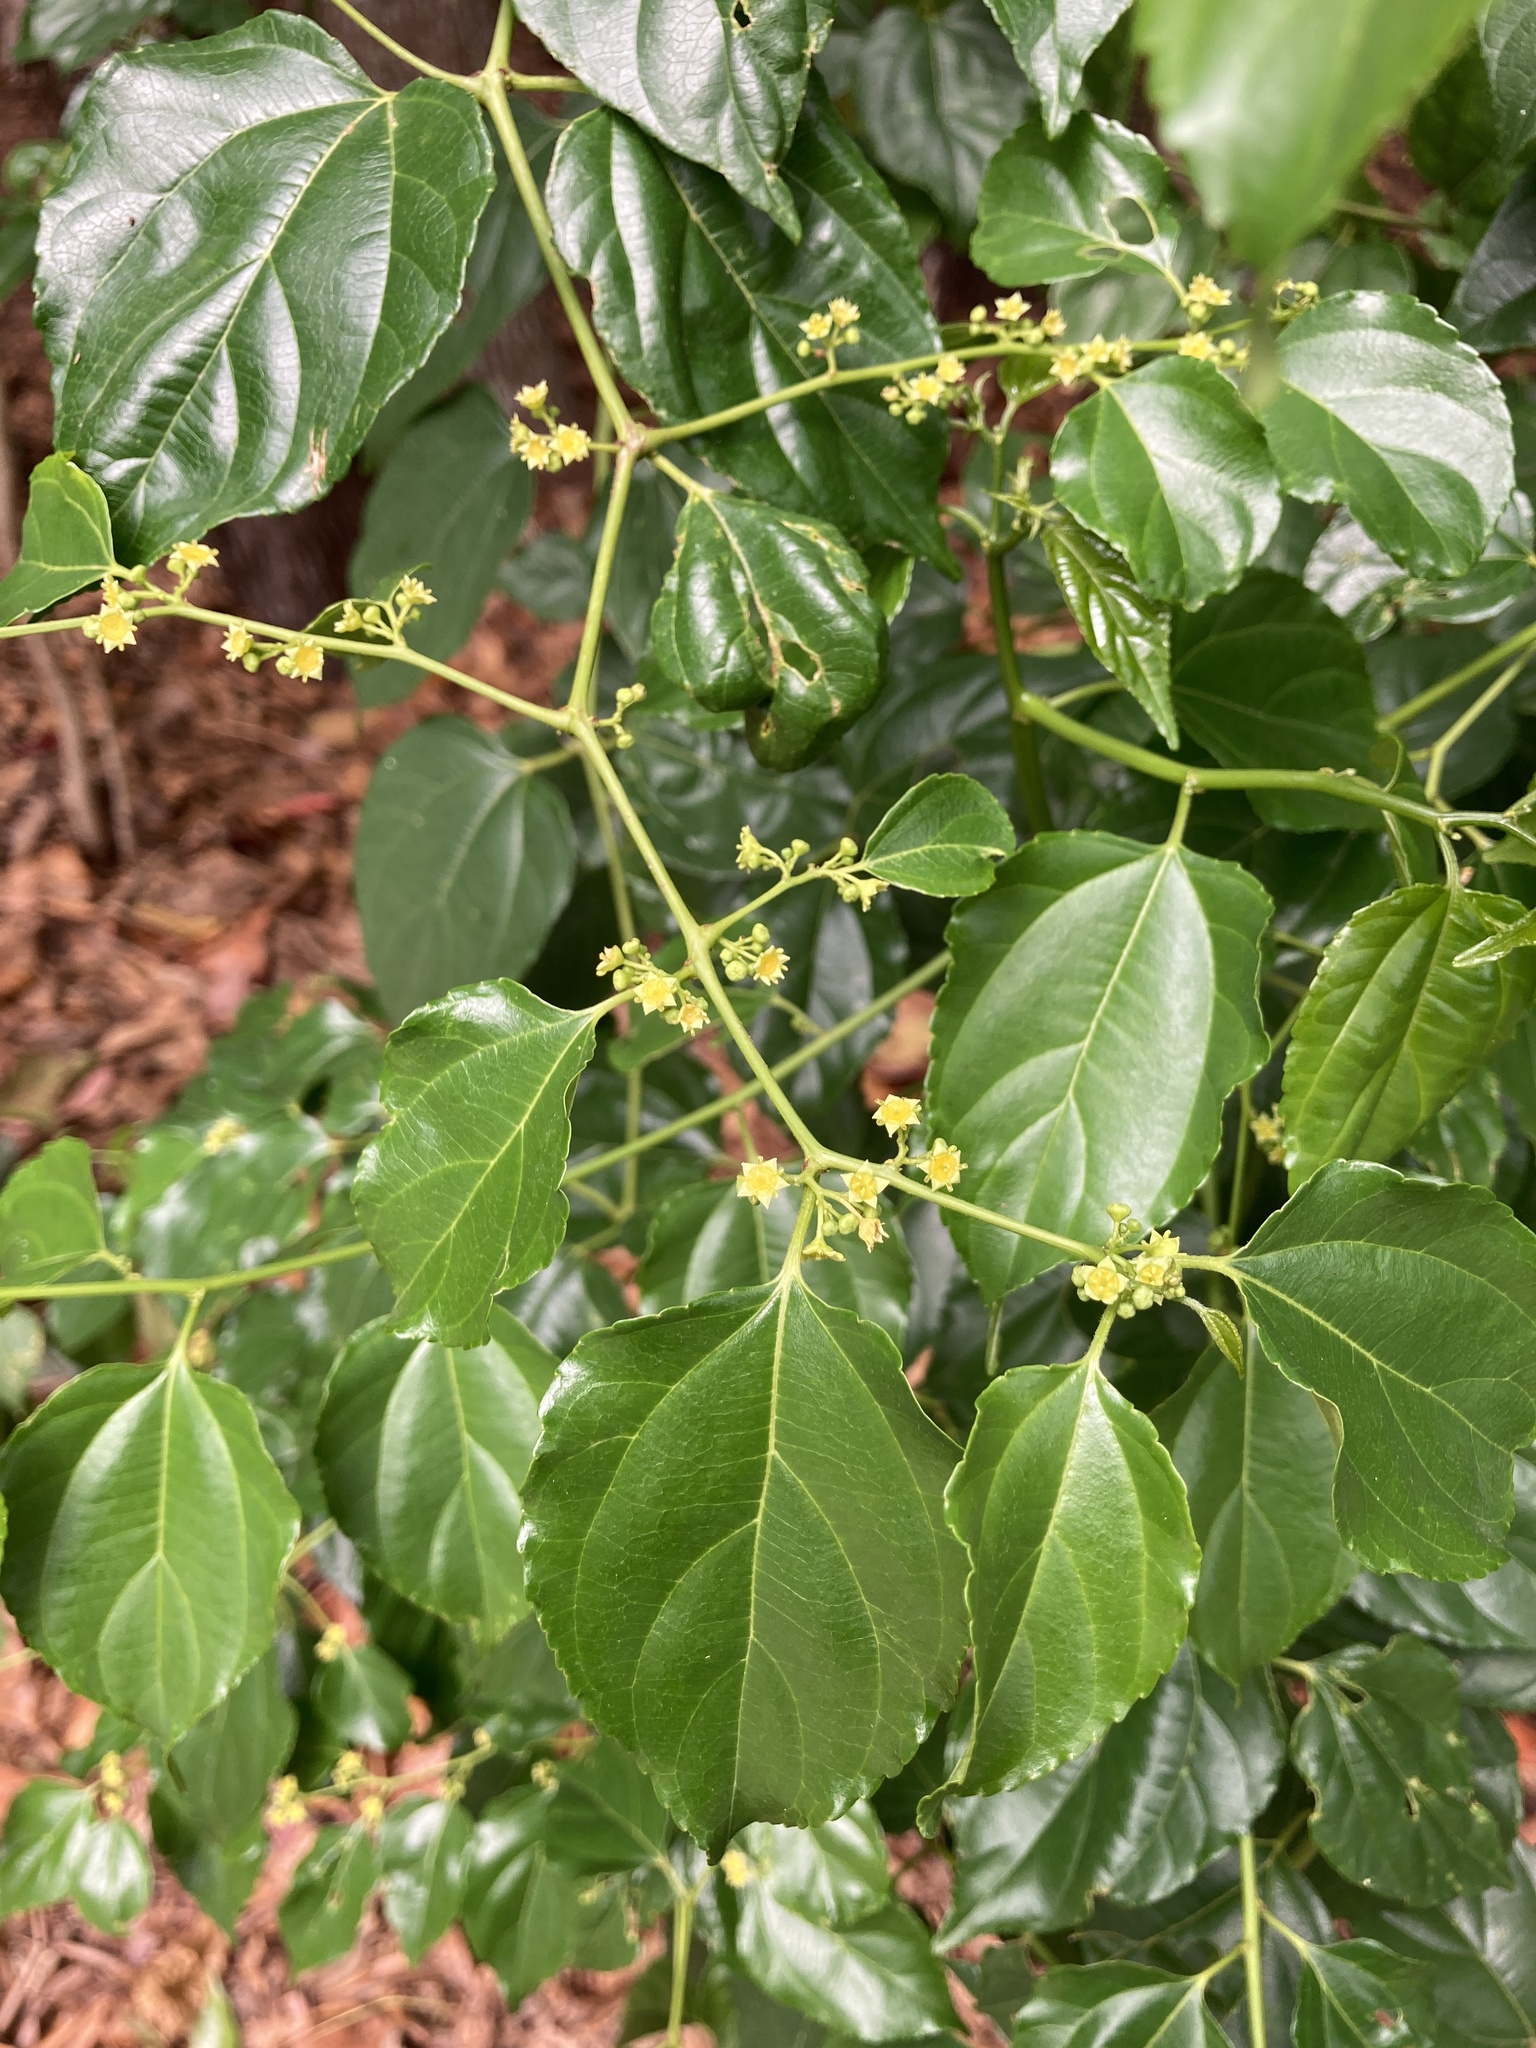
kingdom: Plantae
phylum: Tracheophyta
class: Magnoliopsida
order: Rosales
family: Rhamnaceae
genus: Colubrina
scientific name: Colubrina asiatica
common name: Asian nakedwood
